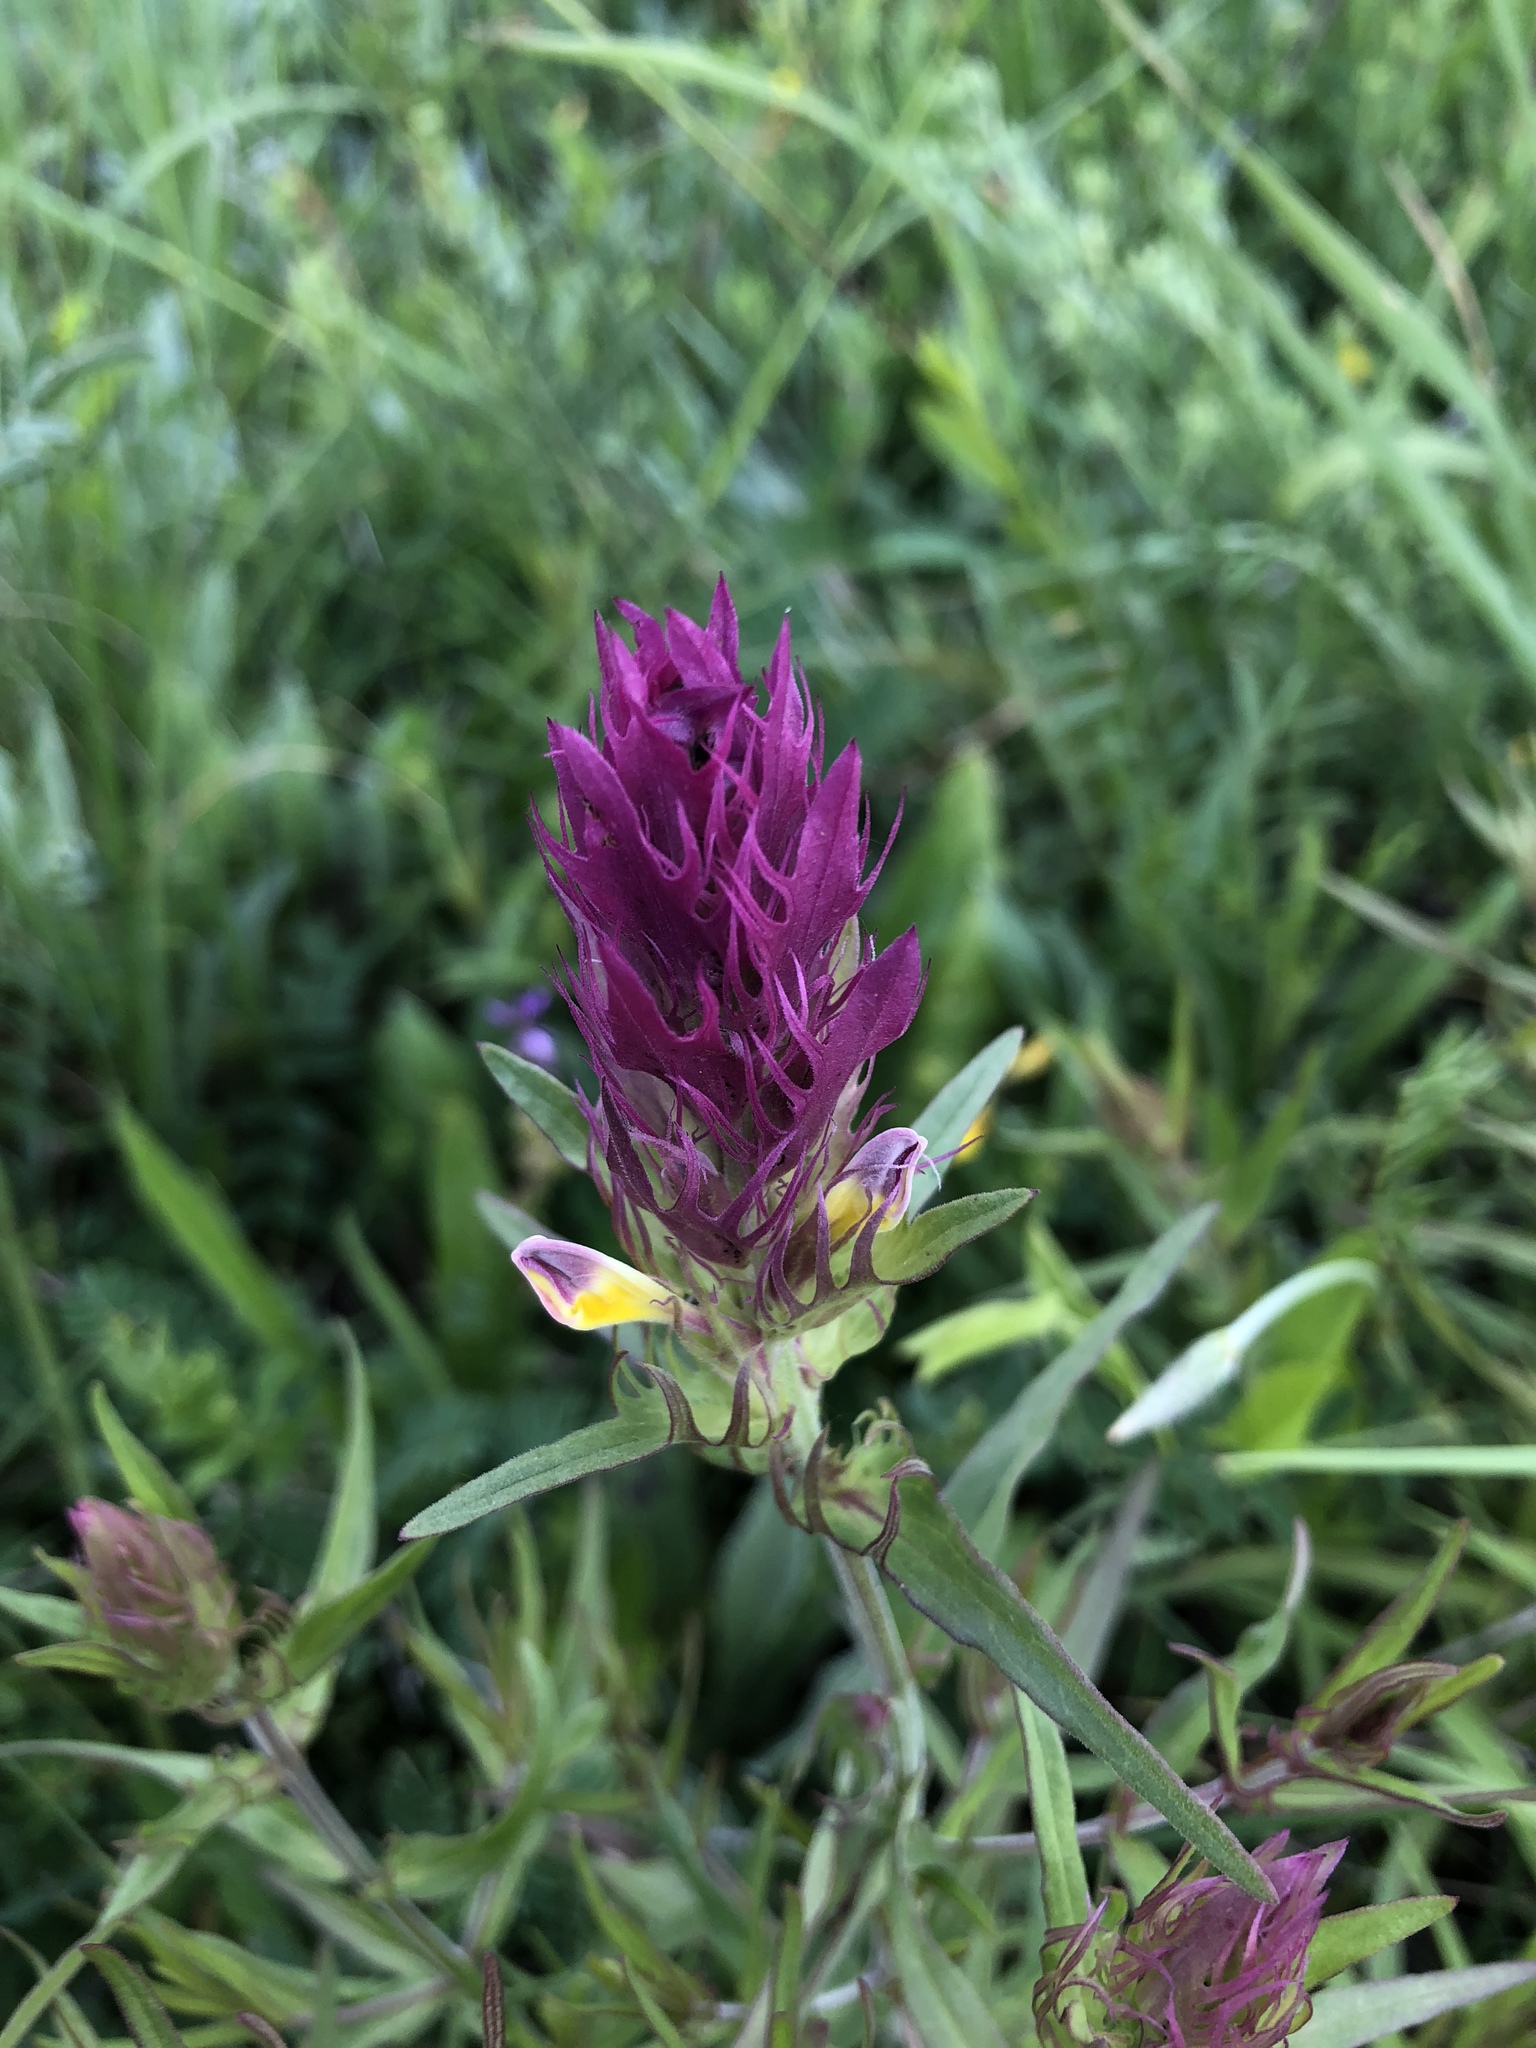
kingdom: Plantae
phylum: Tracheophyta
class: Magnoliopsida
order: Lamiales
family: Orobanchaceae
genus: Melampyrum
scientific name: Melampyrum arvense
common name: Field cow-wheat
